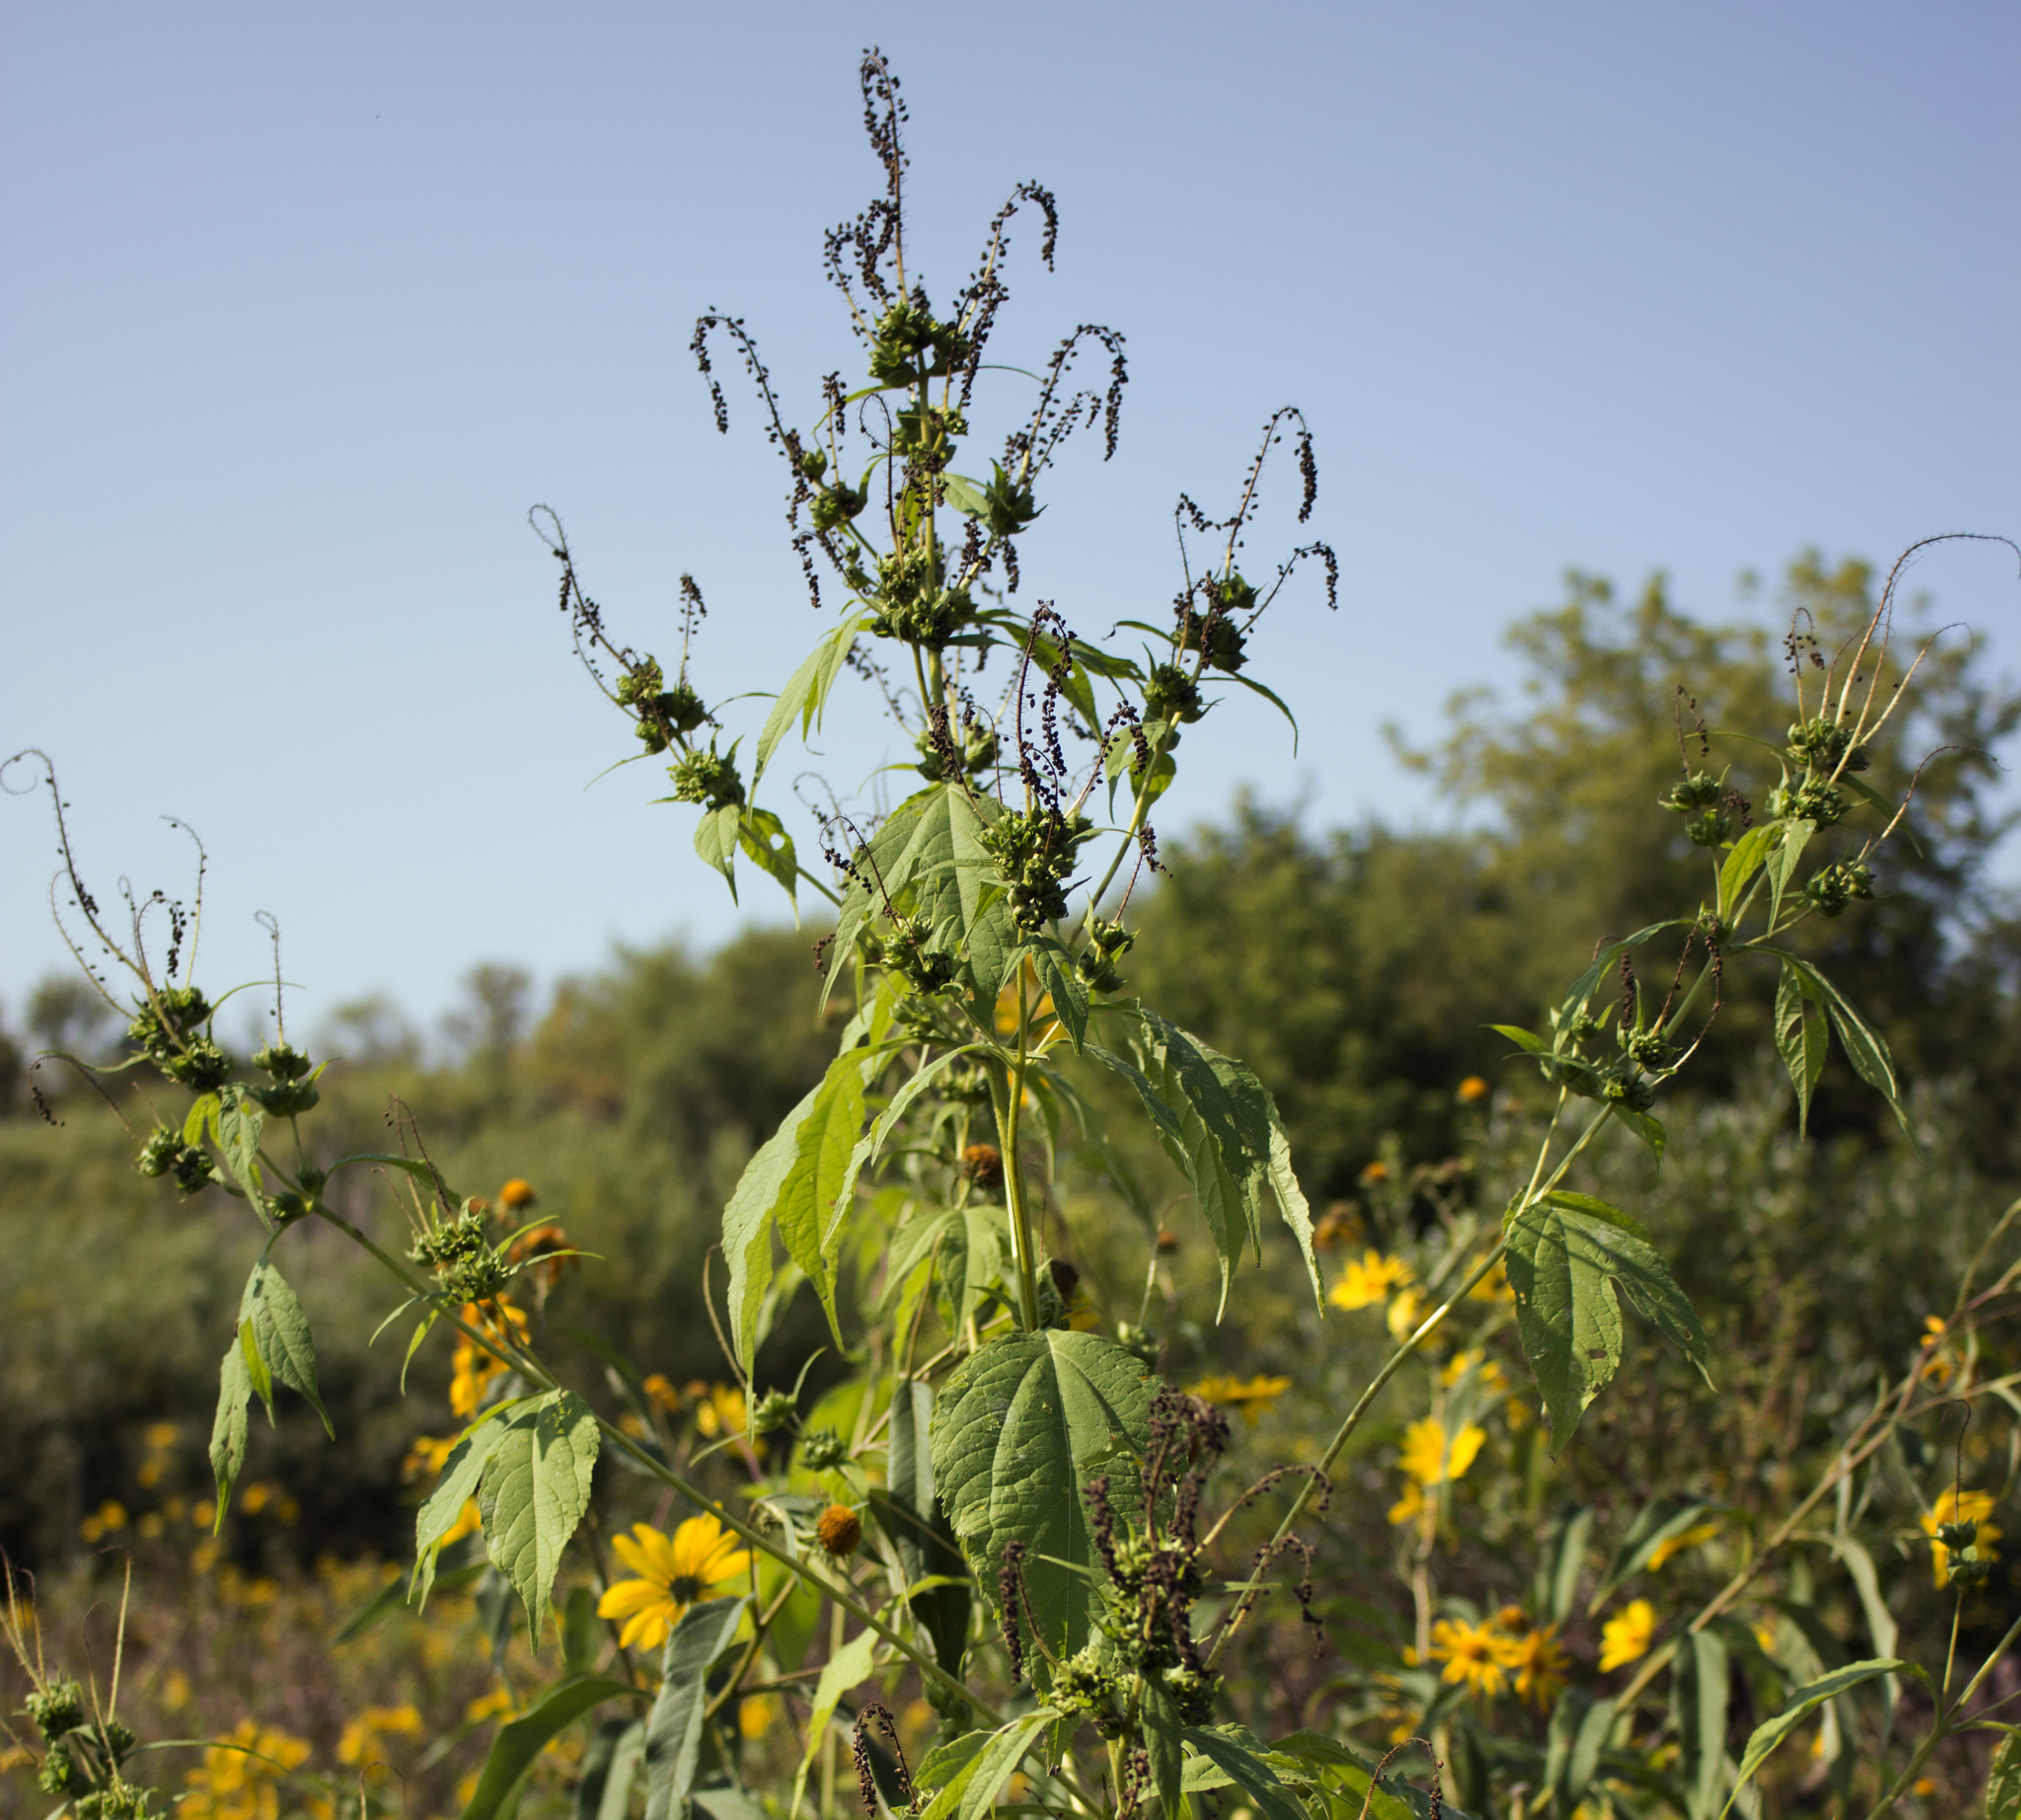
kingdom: Plantae
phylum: Tracheophyta
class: Magnoliopsida
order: Asterales
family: Asteraceae
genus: Ambrosia
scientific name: Ambrosia trifida
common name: Giant ragweed
